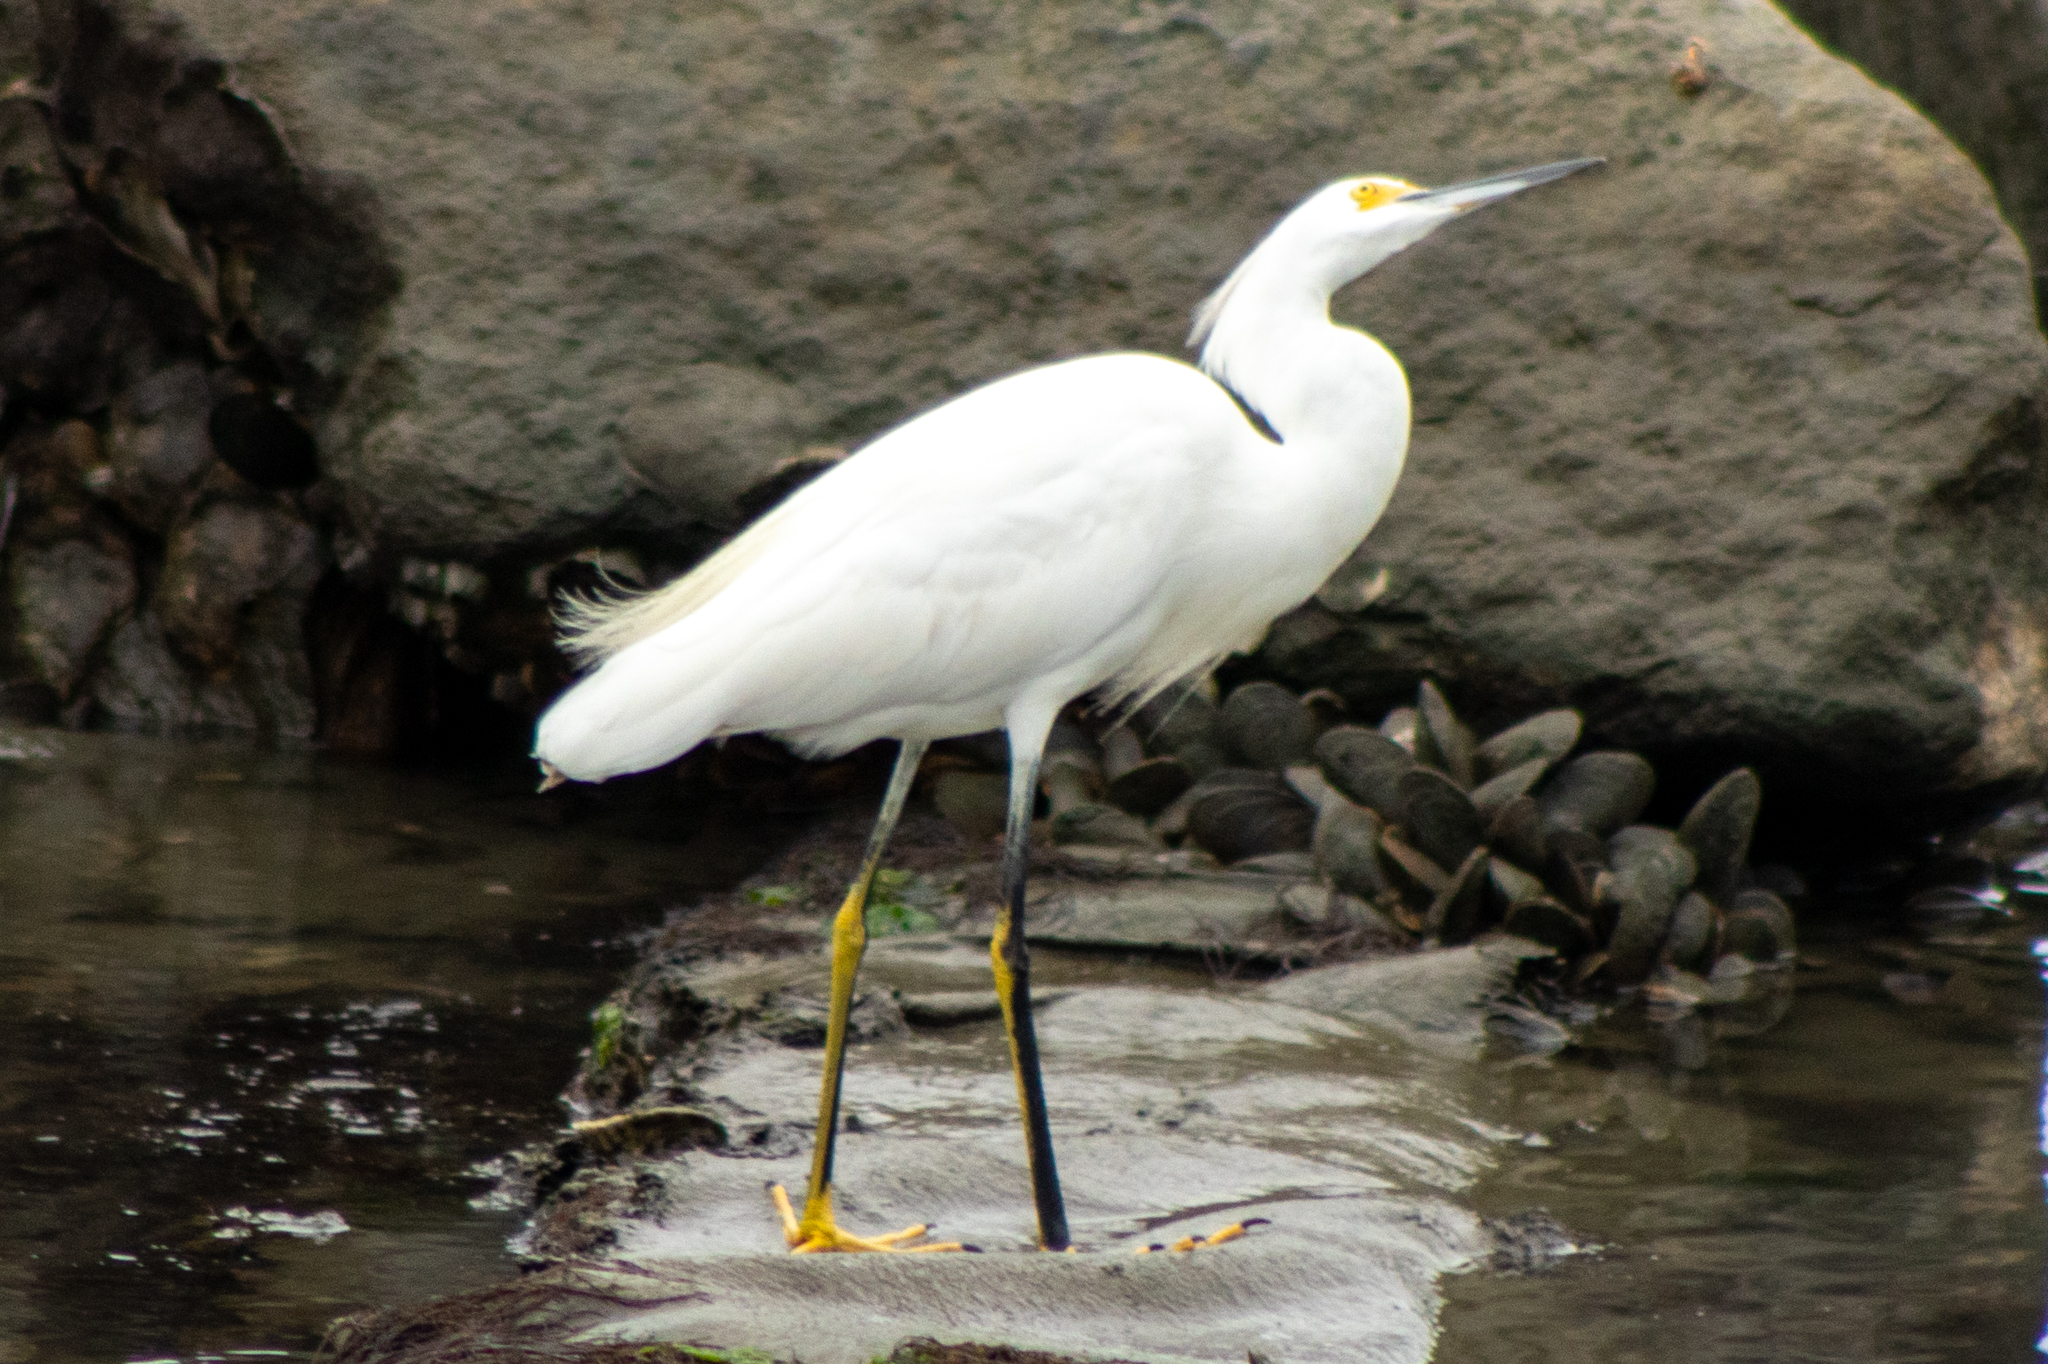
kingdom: Animalia
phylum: Chordata
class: Aves
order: Pelecaniformes
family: Ardeidae
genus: Egretta
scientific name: Egretta thula
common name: Snowy egret
